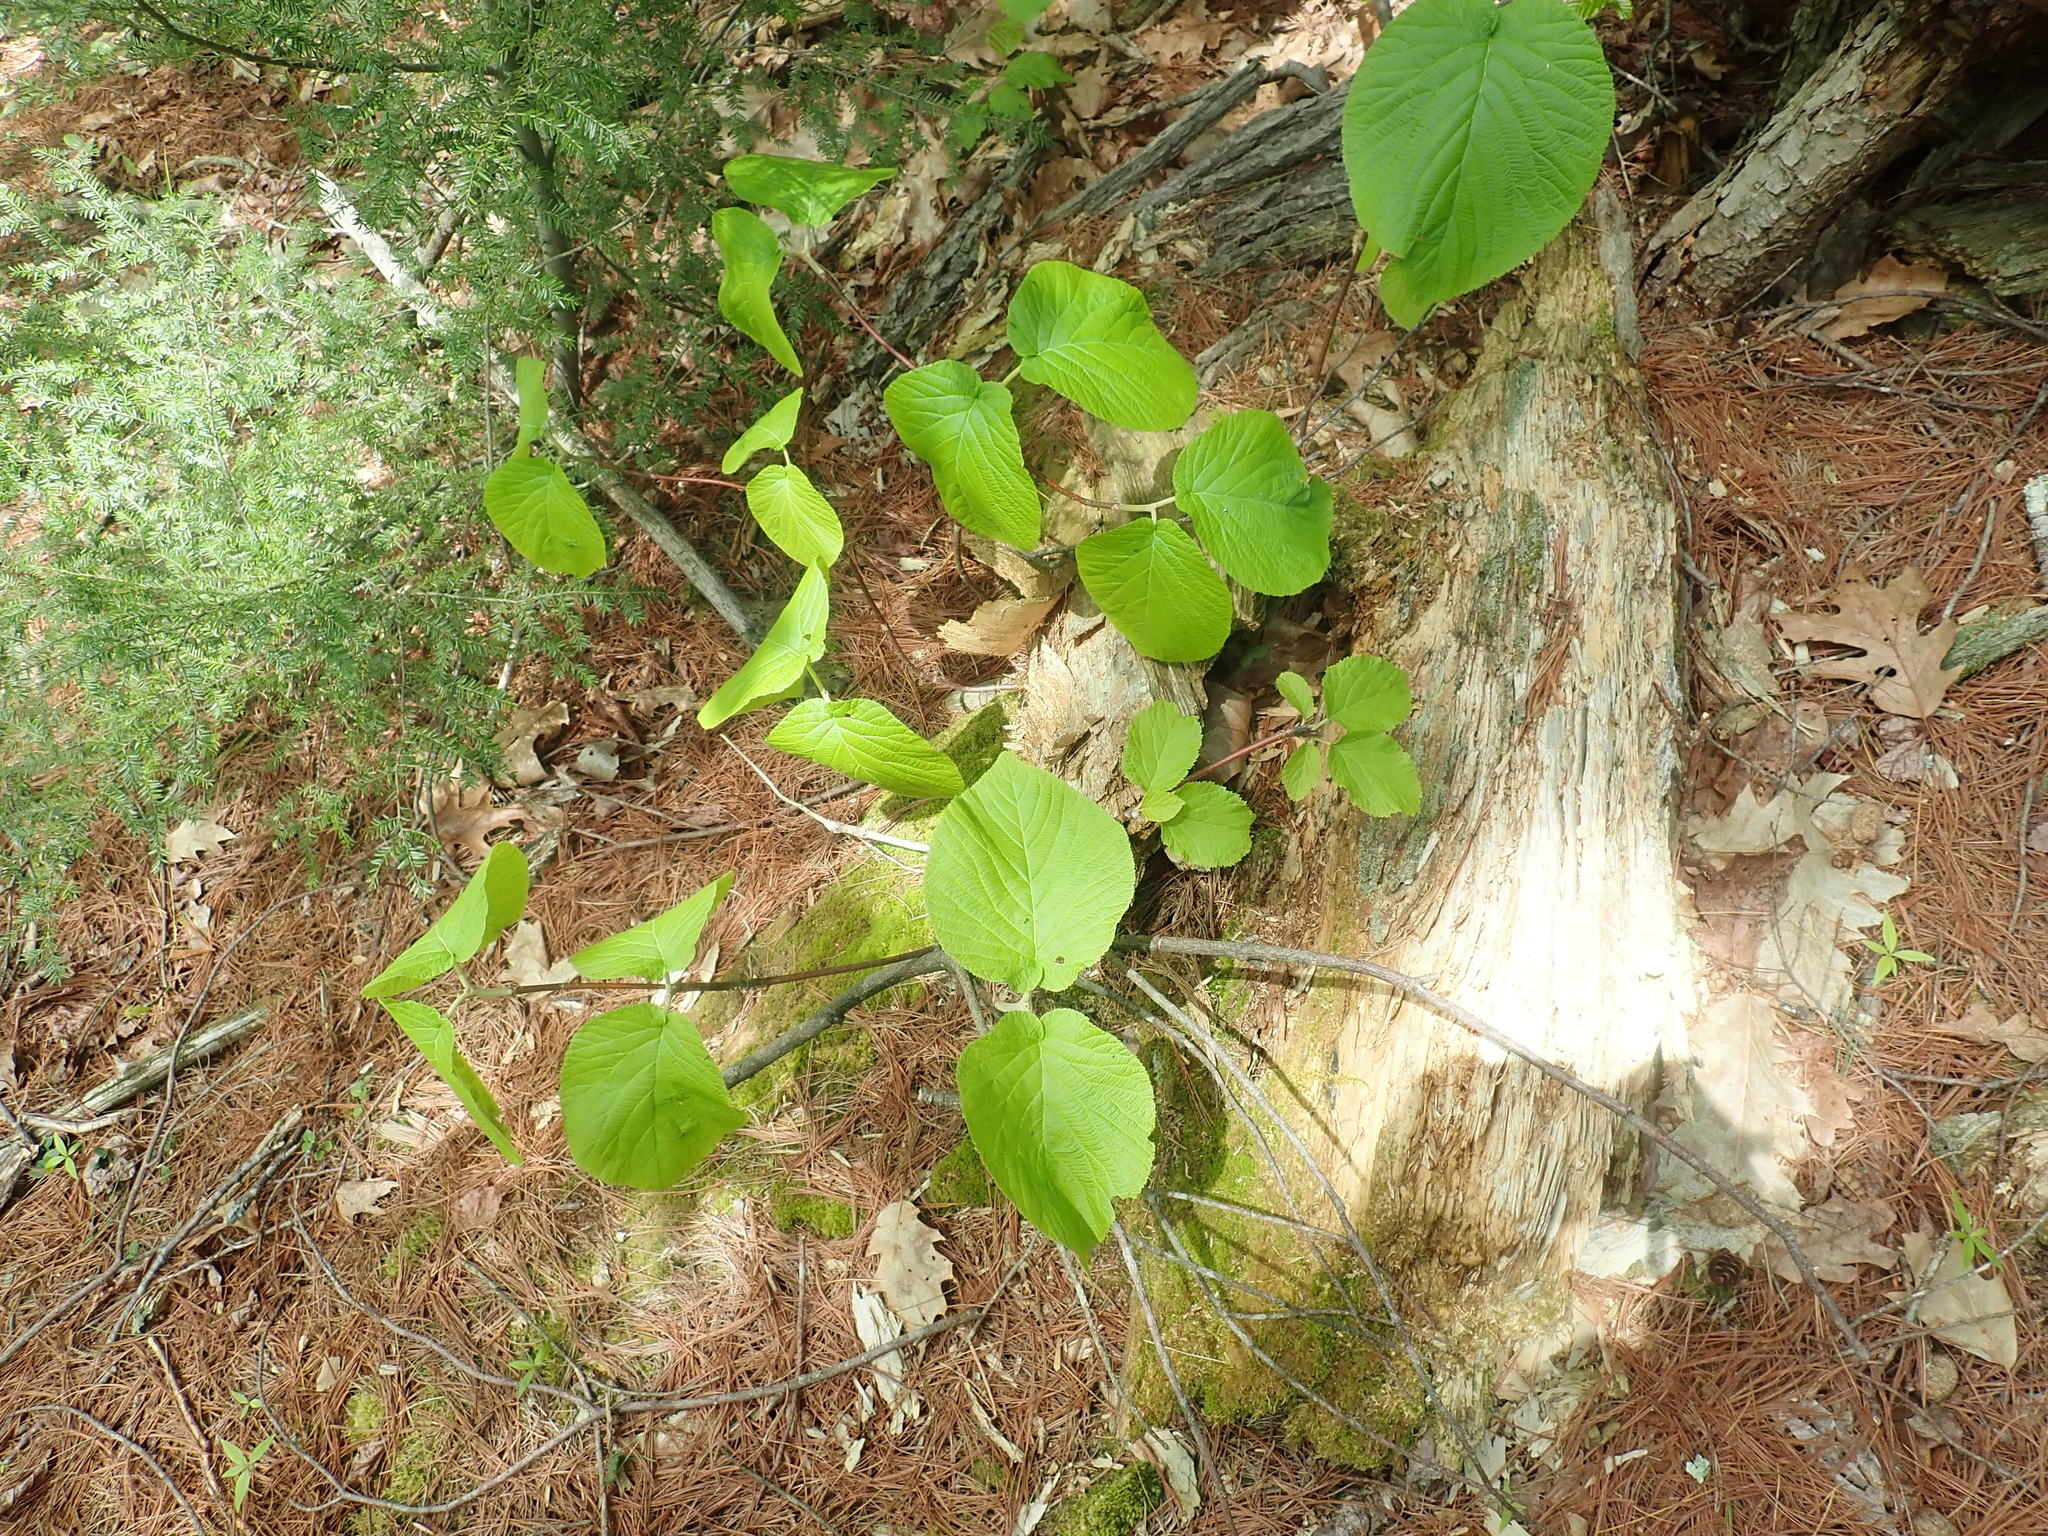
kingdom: Plantae
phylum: Tracheophyta
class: Magnoliopsida
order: Dipsacales
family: Viburnaceae
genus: Viburnum
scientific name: Viburnum lantanoides
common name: Hobblebush
